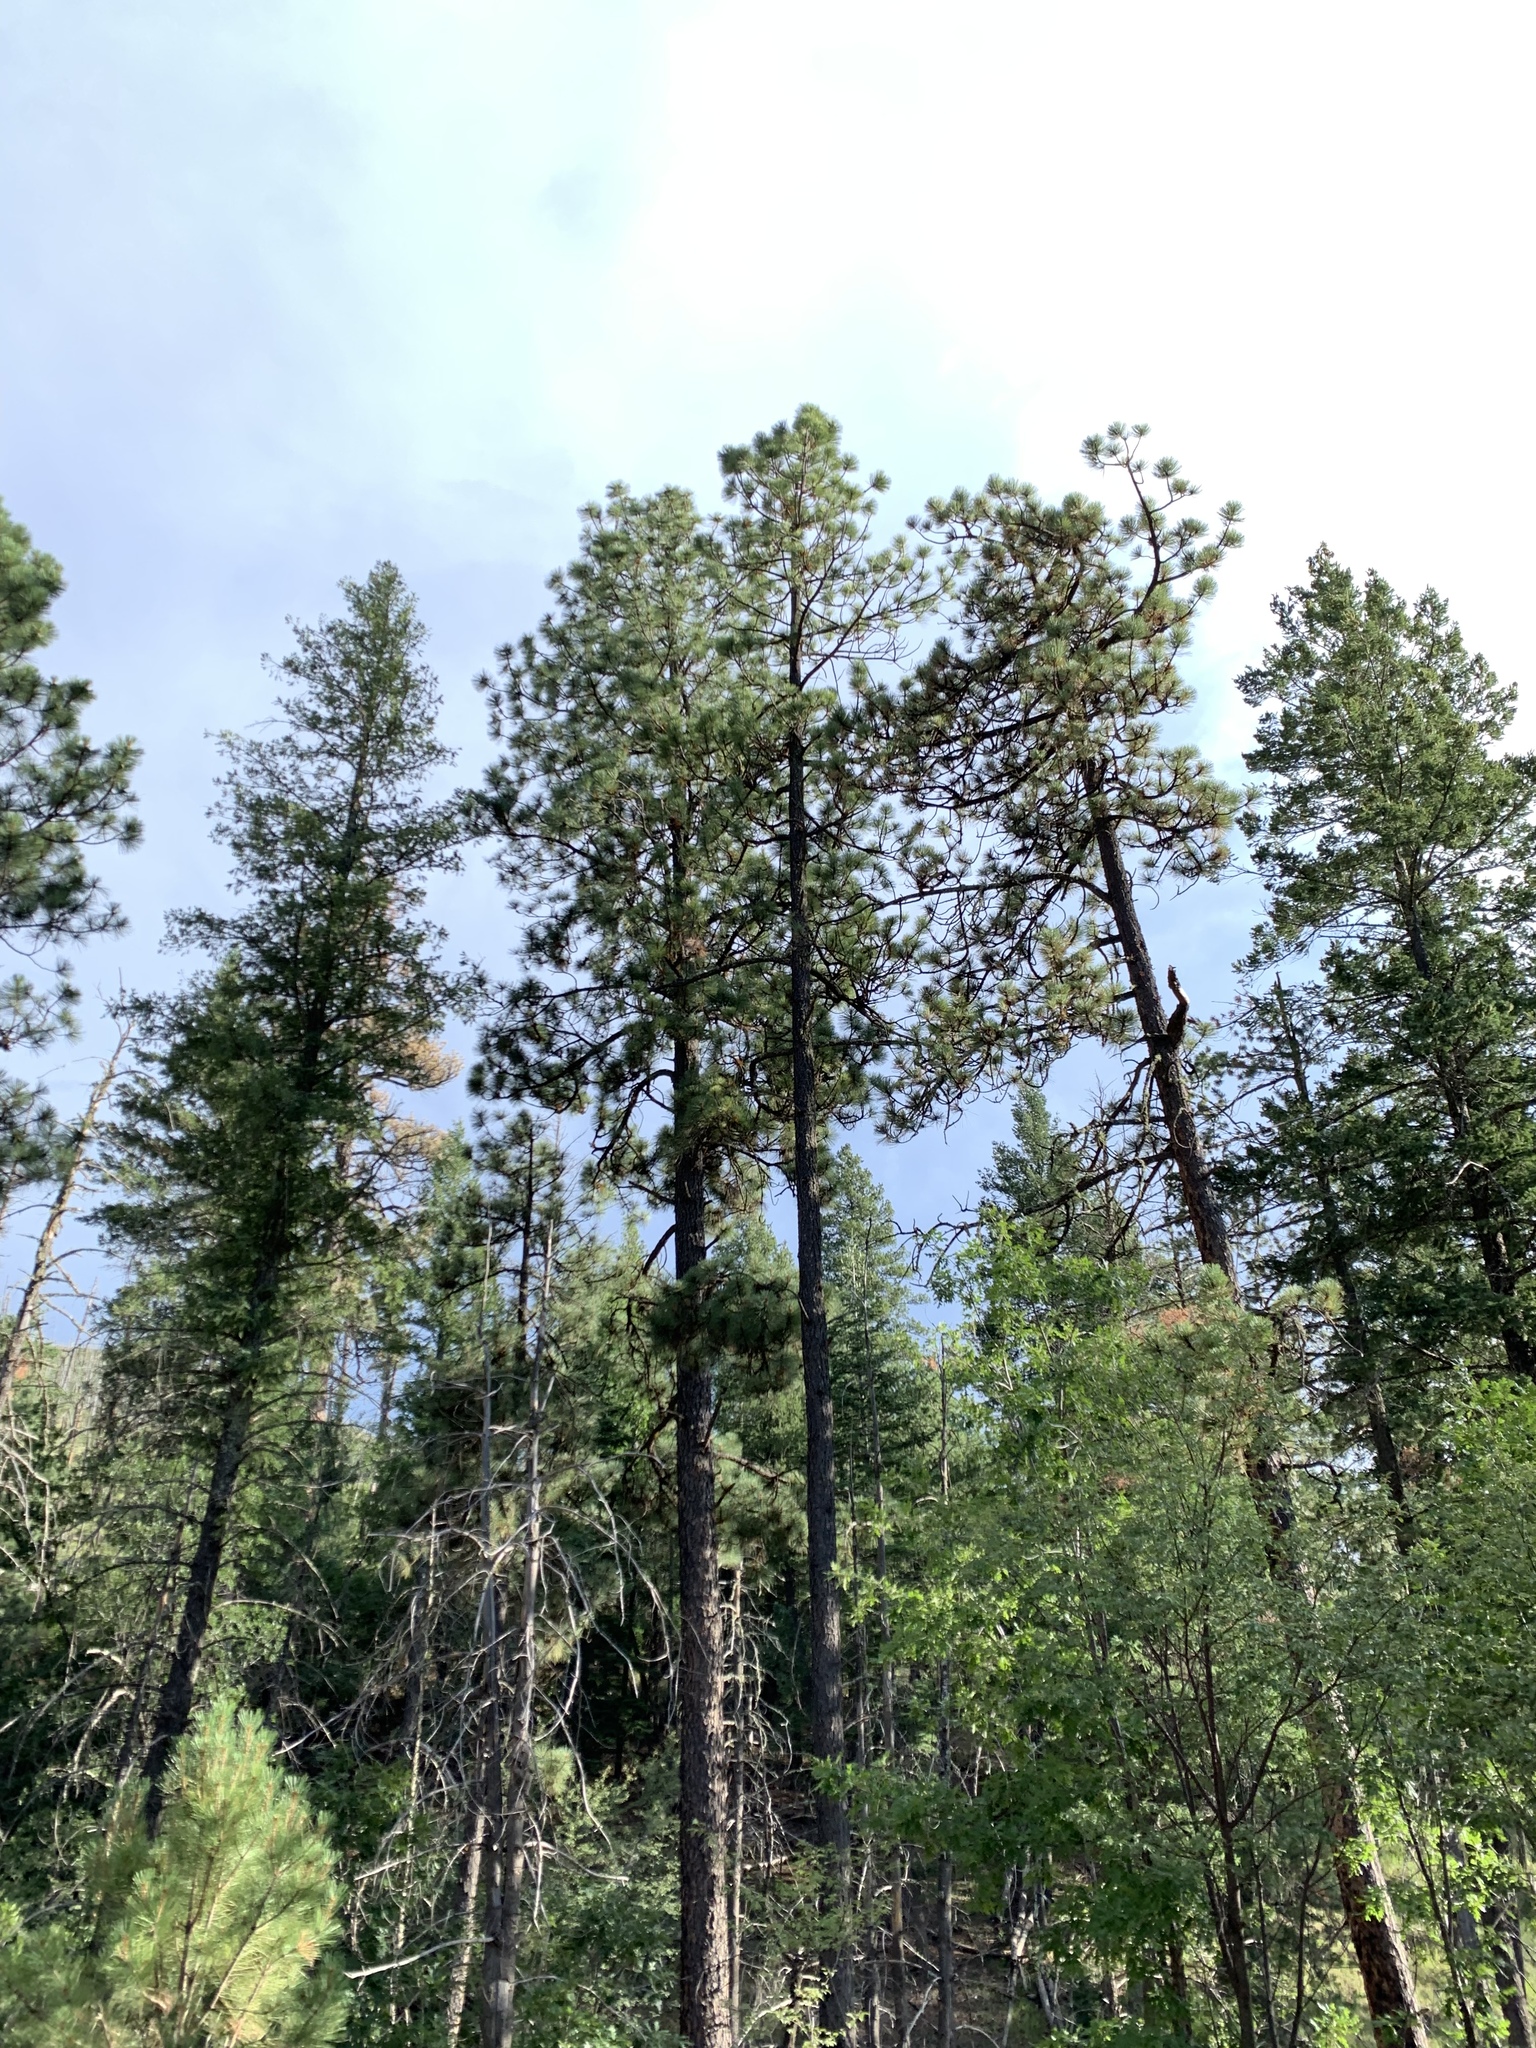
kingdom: Plantae
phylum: Tracheophyta
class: Pinopsida
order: Pinales
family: Pinaceae
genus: Pinus
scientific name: Pinus ponderosa
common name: Western yellow-pine
